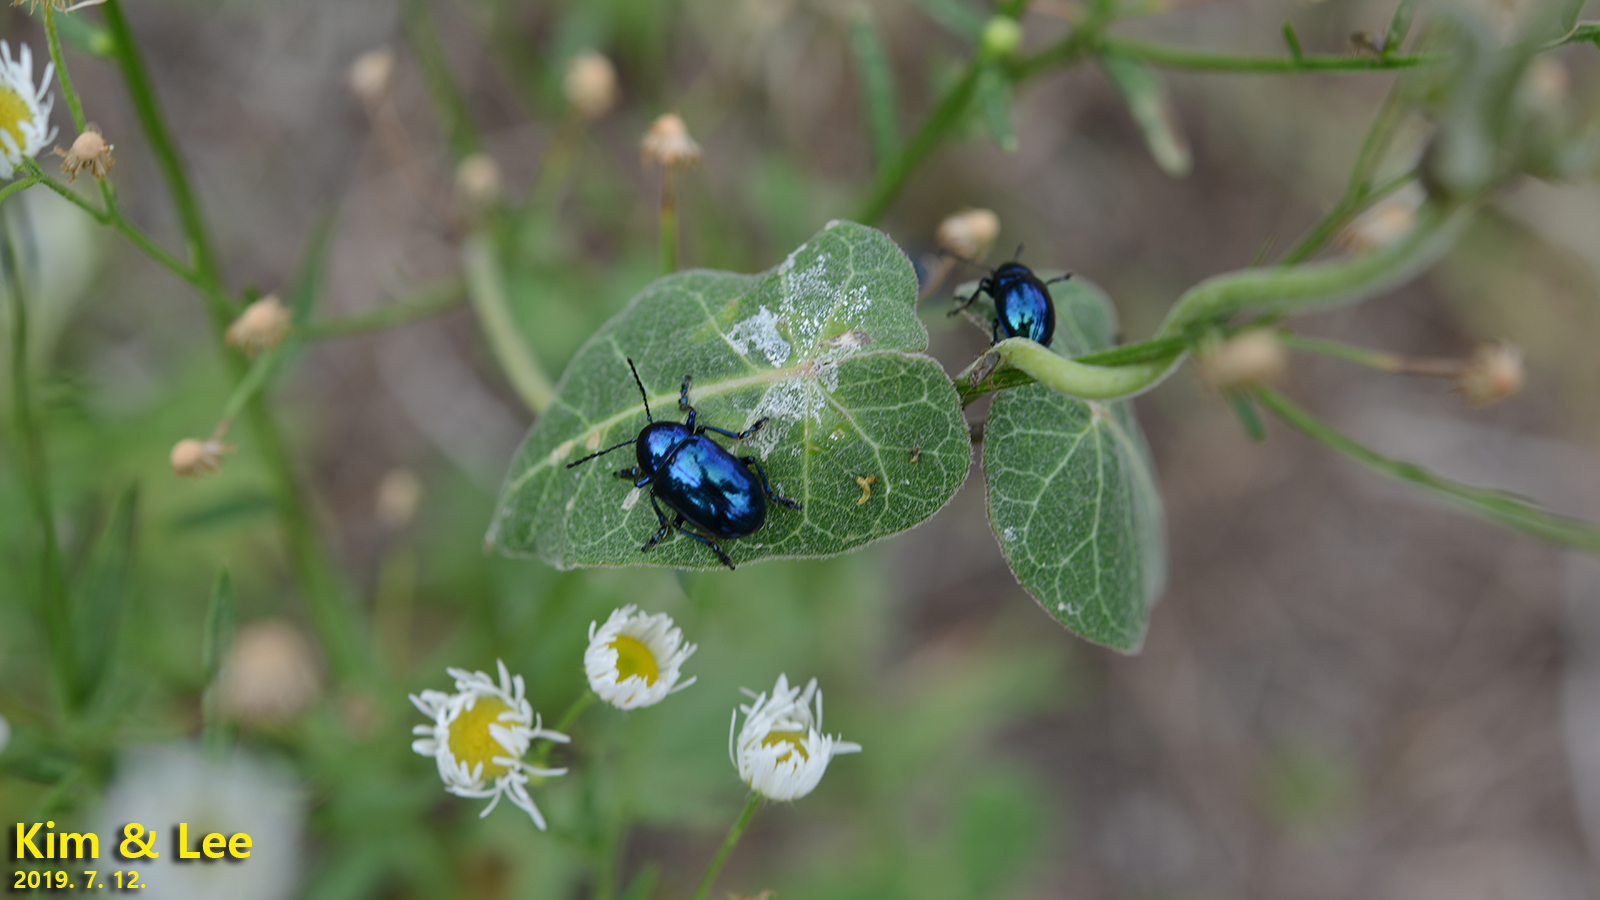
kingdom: Animalia
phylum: Arthropoda
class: Insecta
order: Coleoptera
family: Chrysomelidae
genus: Chrysochus
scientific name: Chrysochus chinensis
